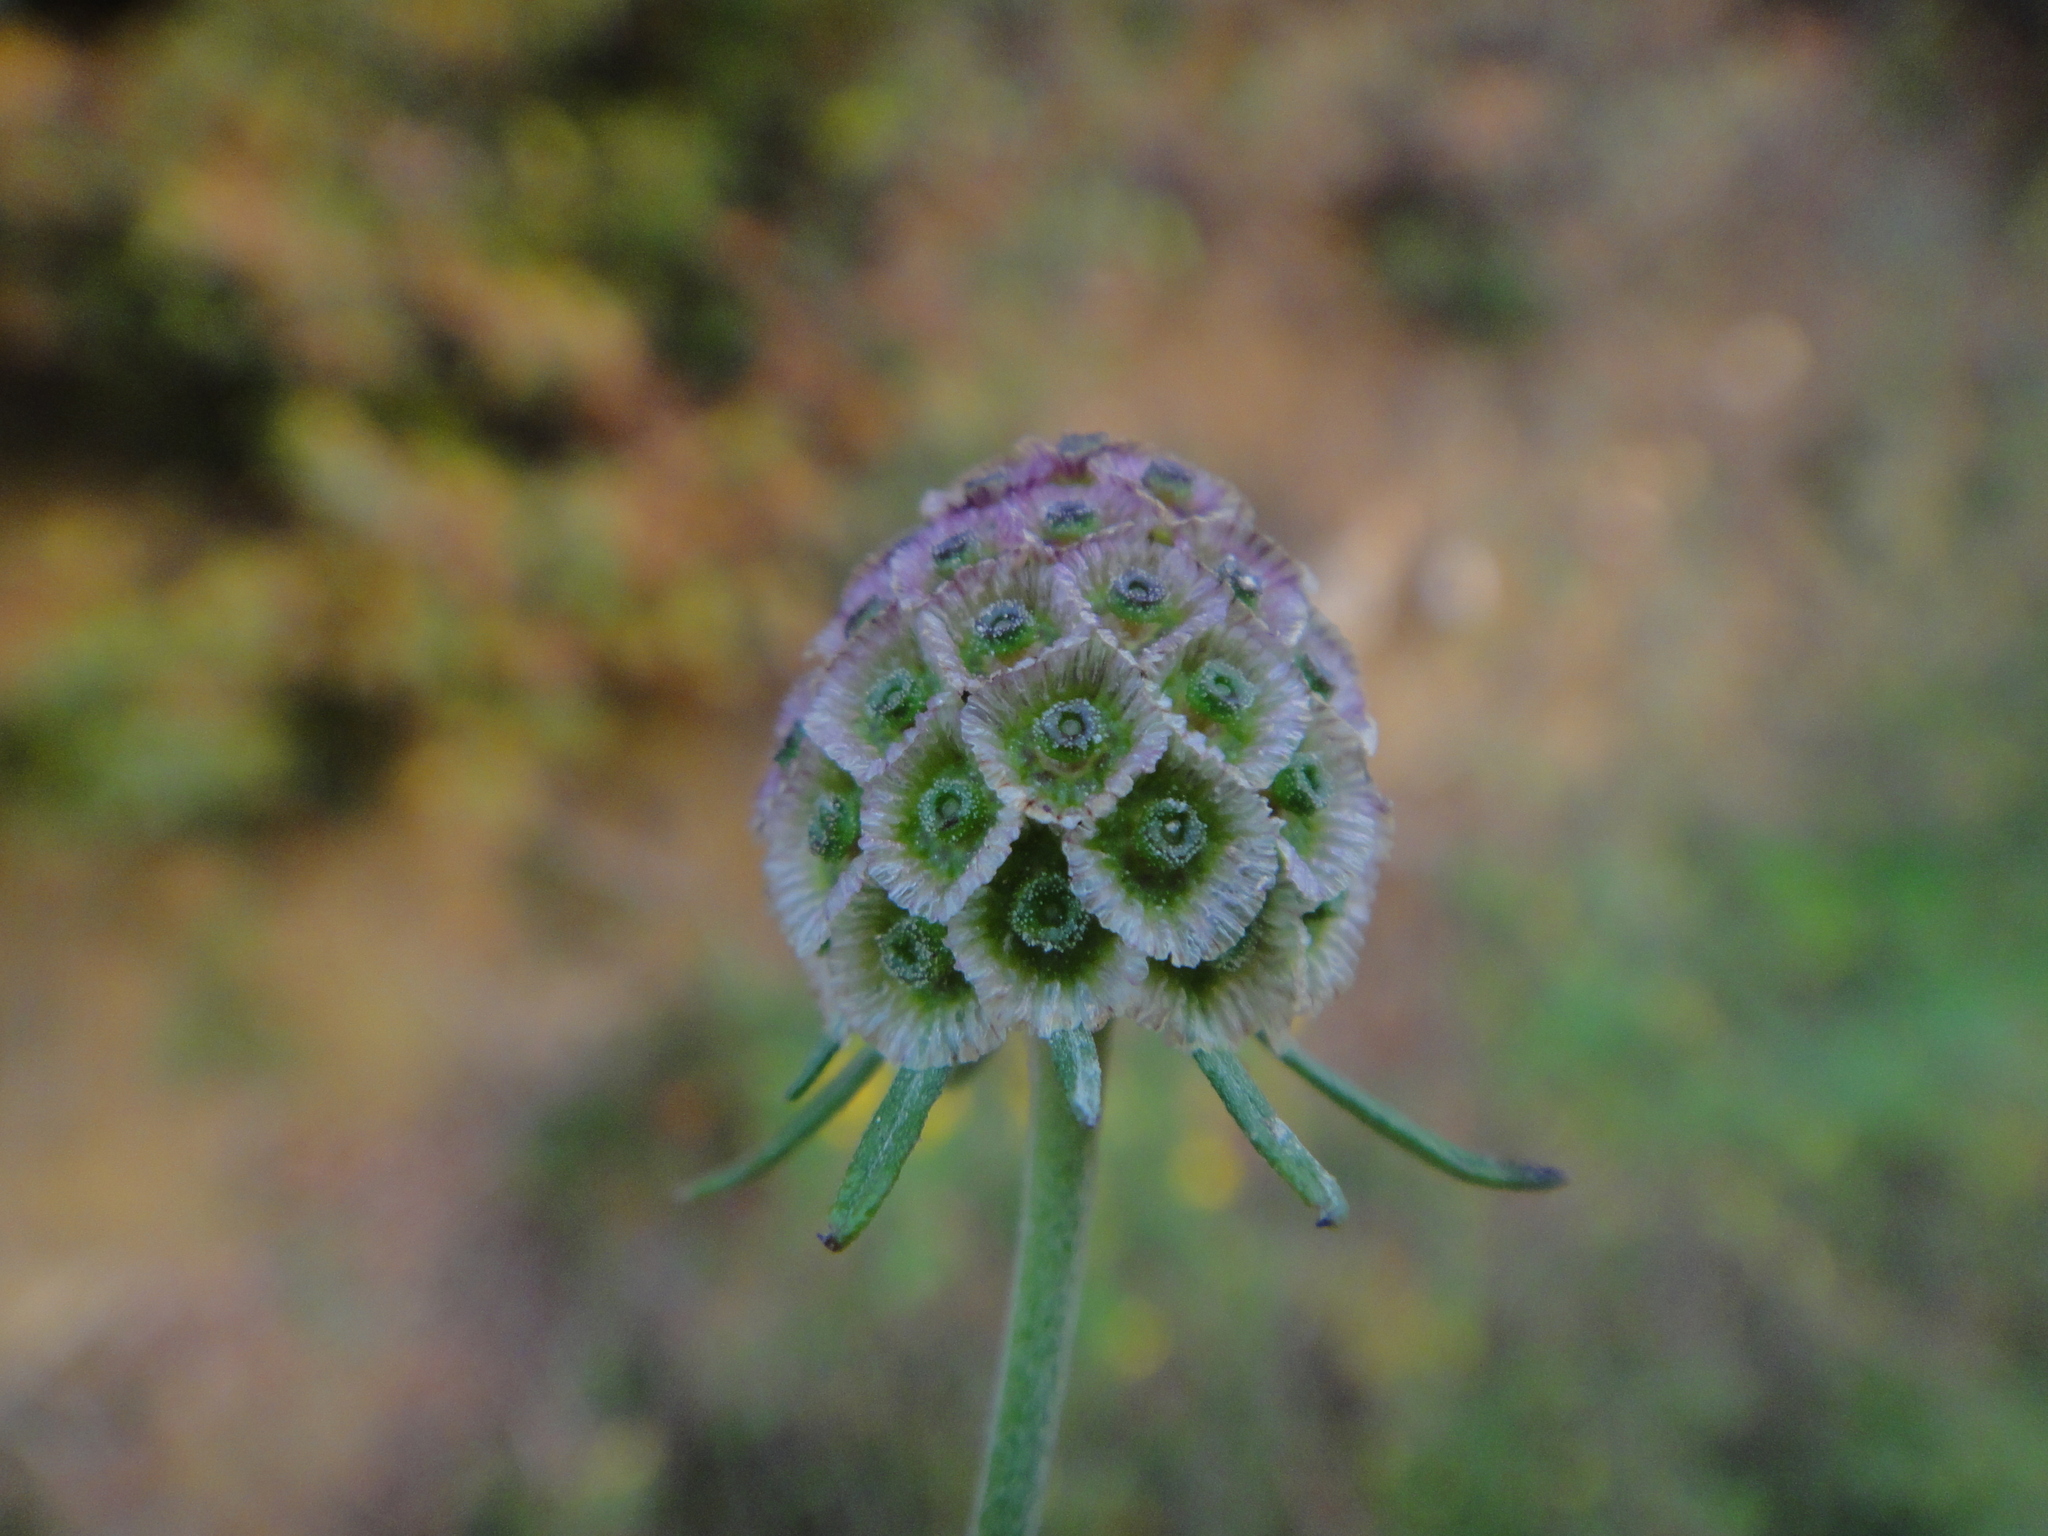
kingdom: Plantae
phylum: Tracheophyta
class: Magnoliopsida
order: Dipsacales
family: Caprifoliaceae
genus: Scabiosa
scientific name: Scabiosa triandra
